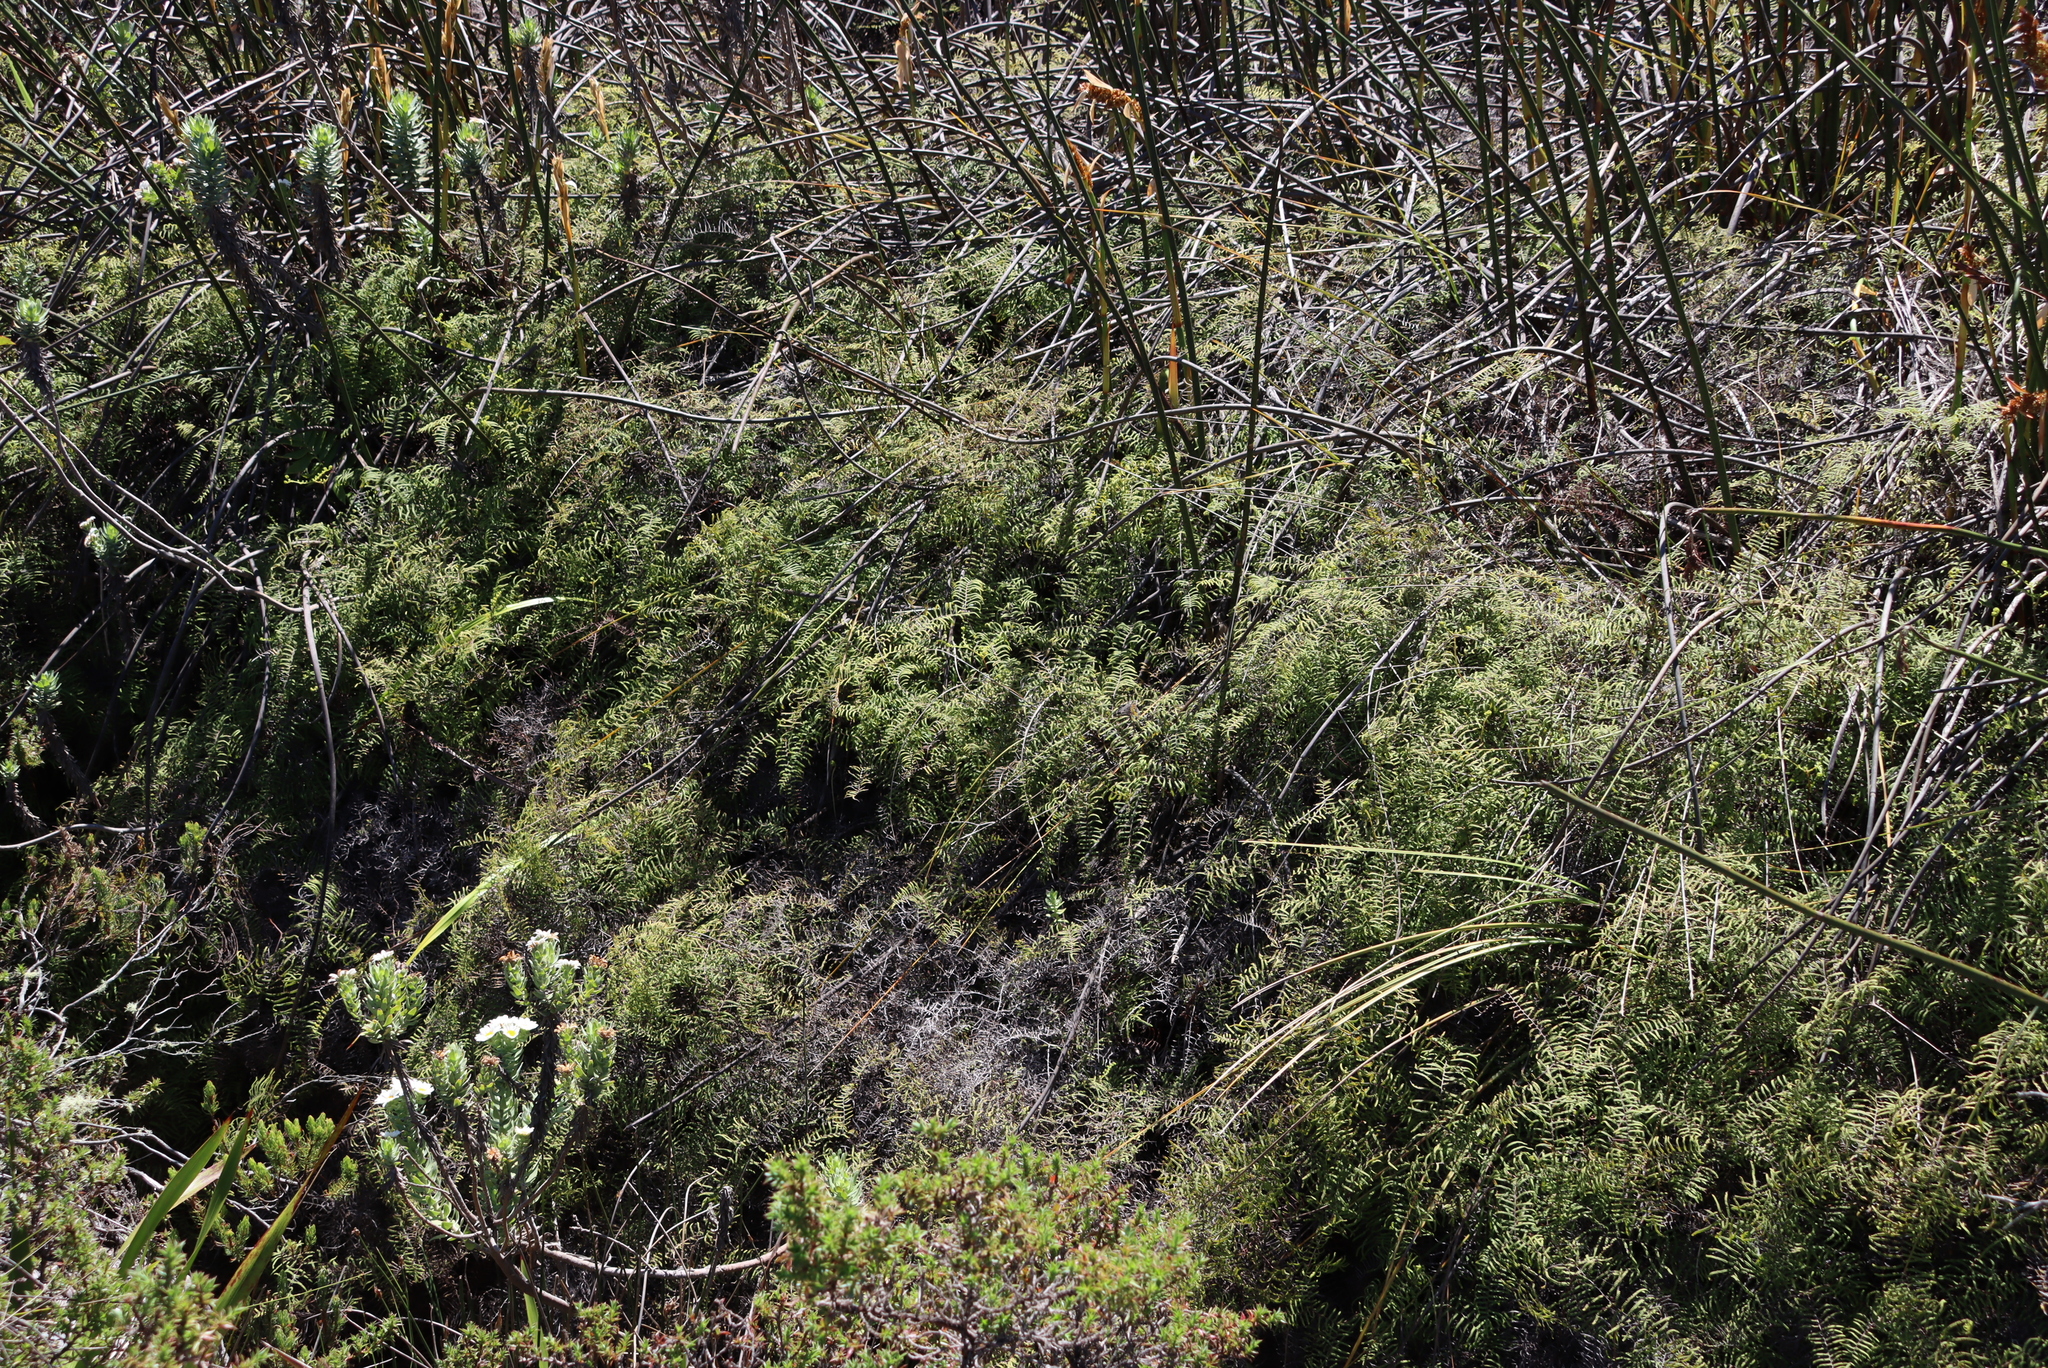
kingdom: Plantae
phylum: Tracheophyta
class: Polypodiopsida
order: Gleicheniales
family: Gleicheniaceae
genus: Gleichenia
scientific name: Gleichenia polypodioides
